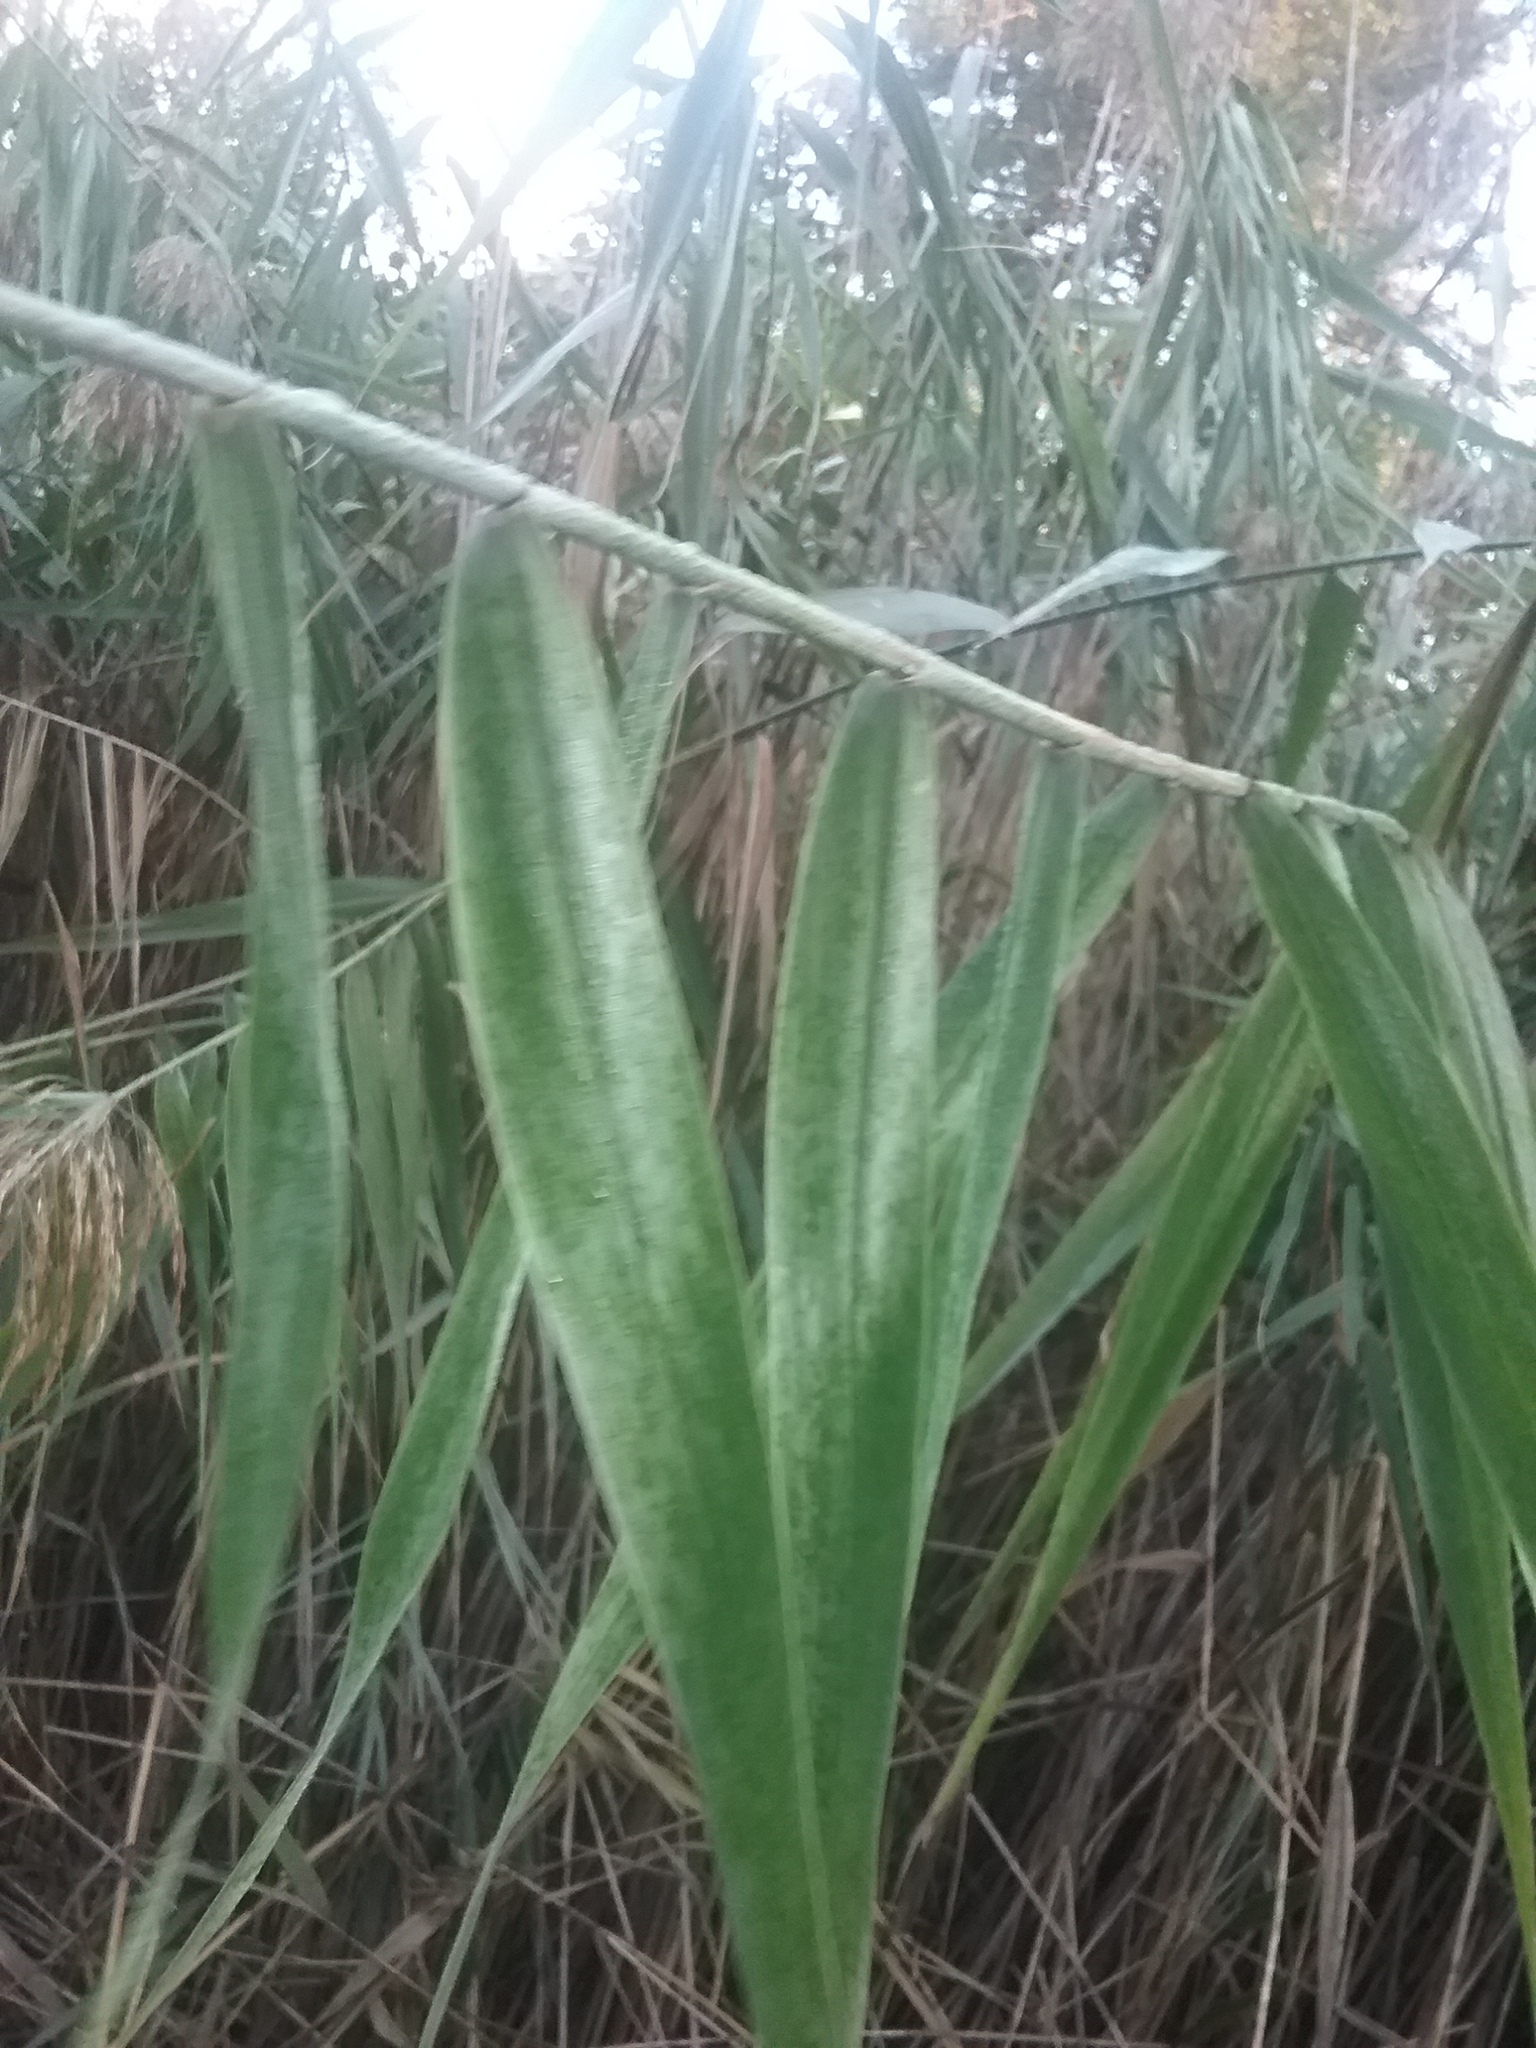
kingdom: Plantae
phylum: Tracheophyta
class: Liliopsida
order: Poales
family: Poaceae
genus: Phragmites
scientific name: Phragmites australis
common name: Common reed
